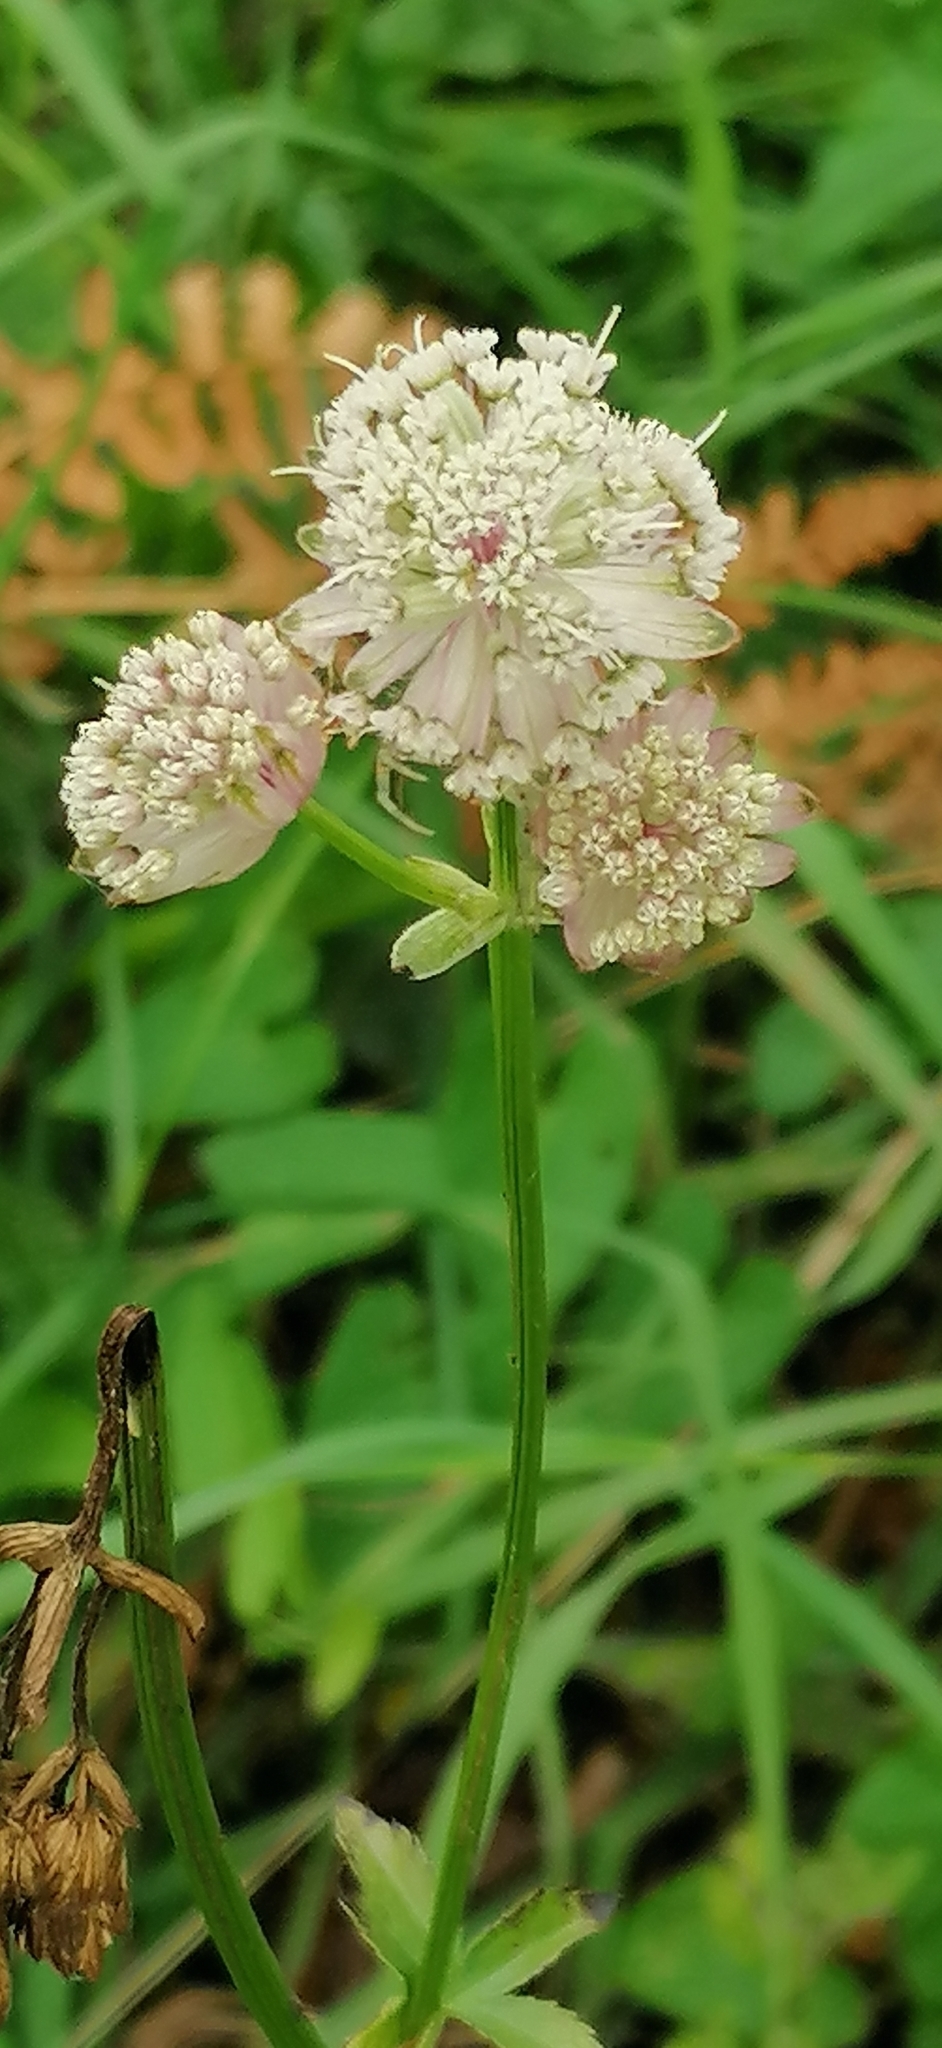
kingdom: Plantae
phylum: Tracheophyta
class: Magnoliopsida
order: Apiales
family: Apiaceae
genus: Astrantia
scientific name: Astrantia major
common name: Greater masterwort
